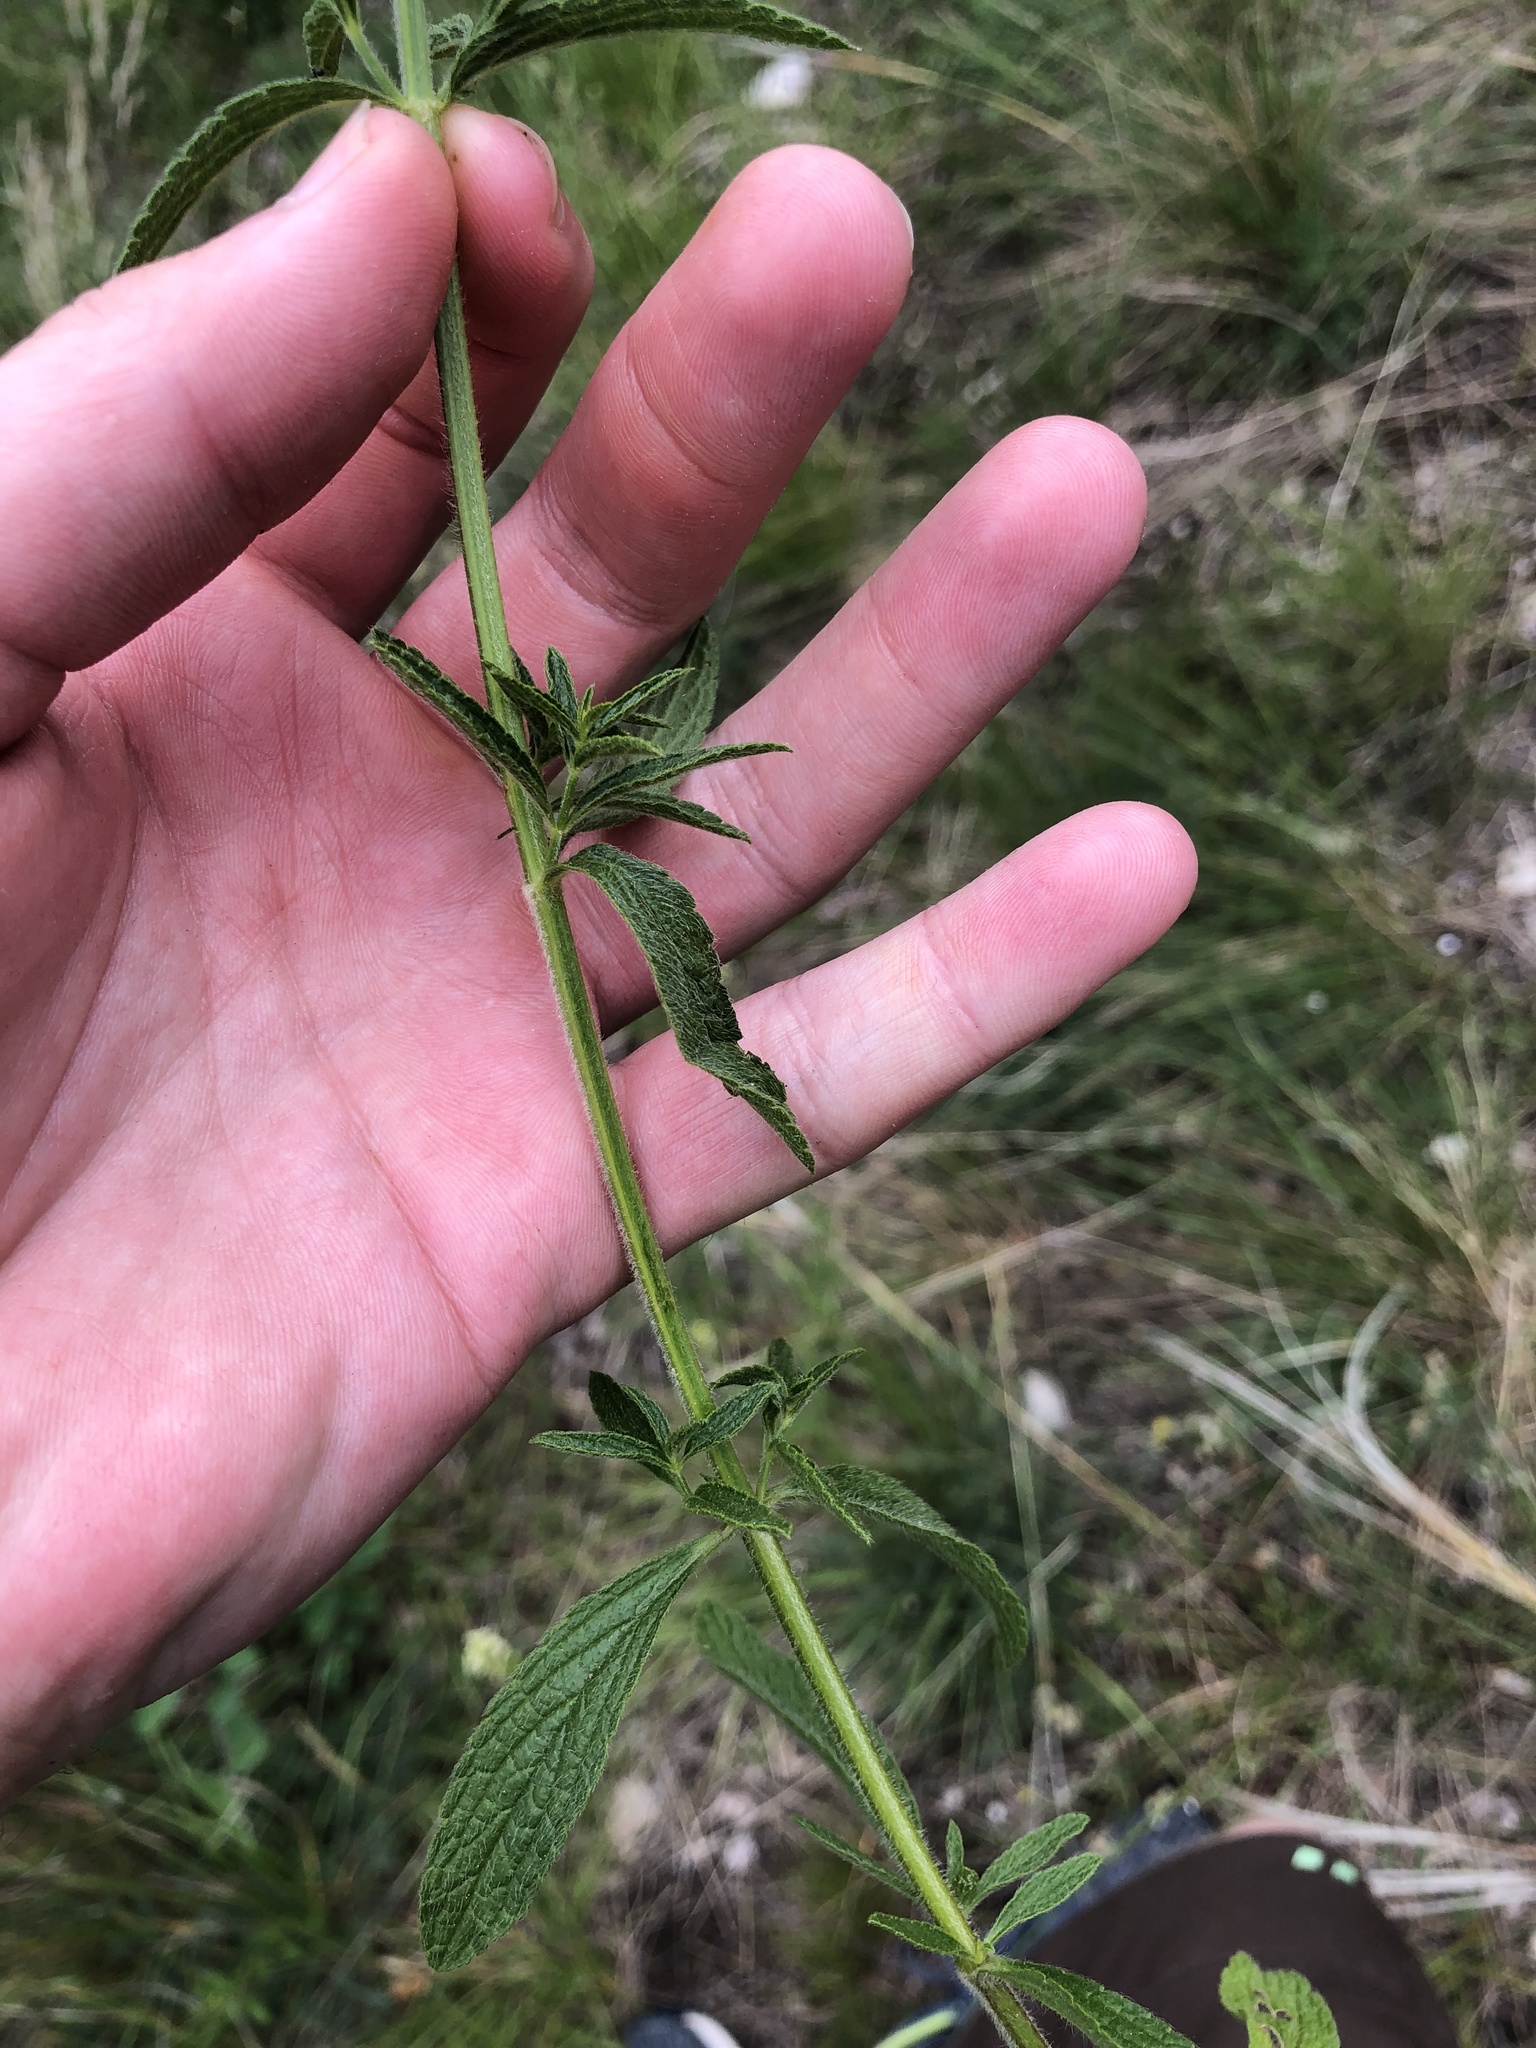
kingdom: Plantae
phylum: Tracheophyta
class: Magnoliopsida
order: Lamiales
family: Lamiaceae
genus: Stachys
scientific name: Stachys recta
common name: Perennial yellow-woundwort
